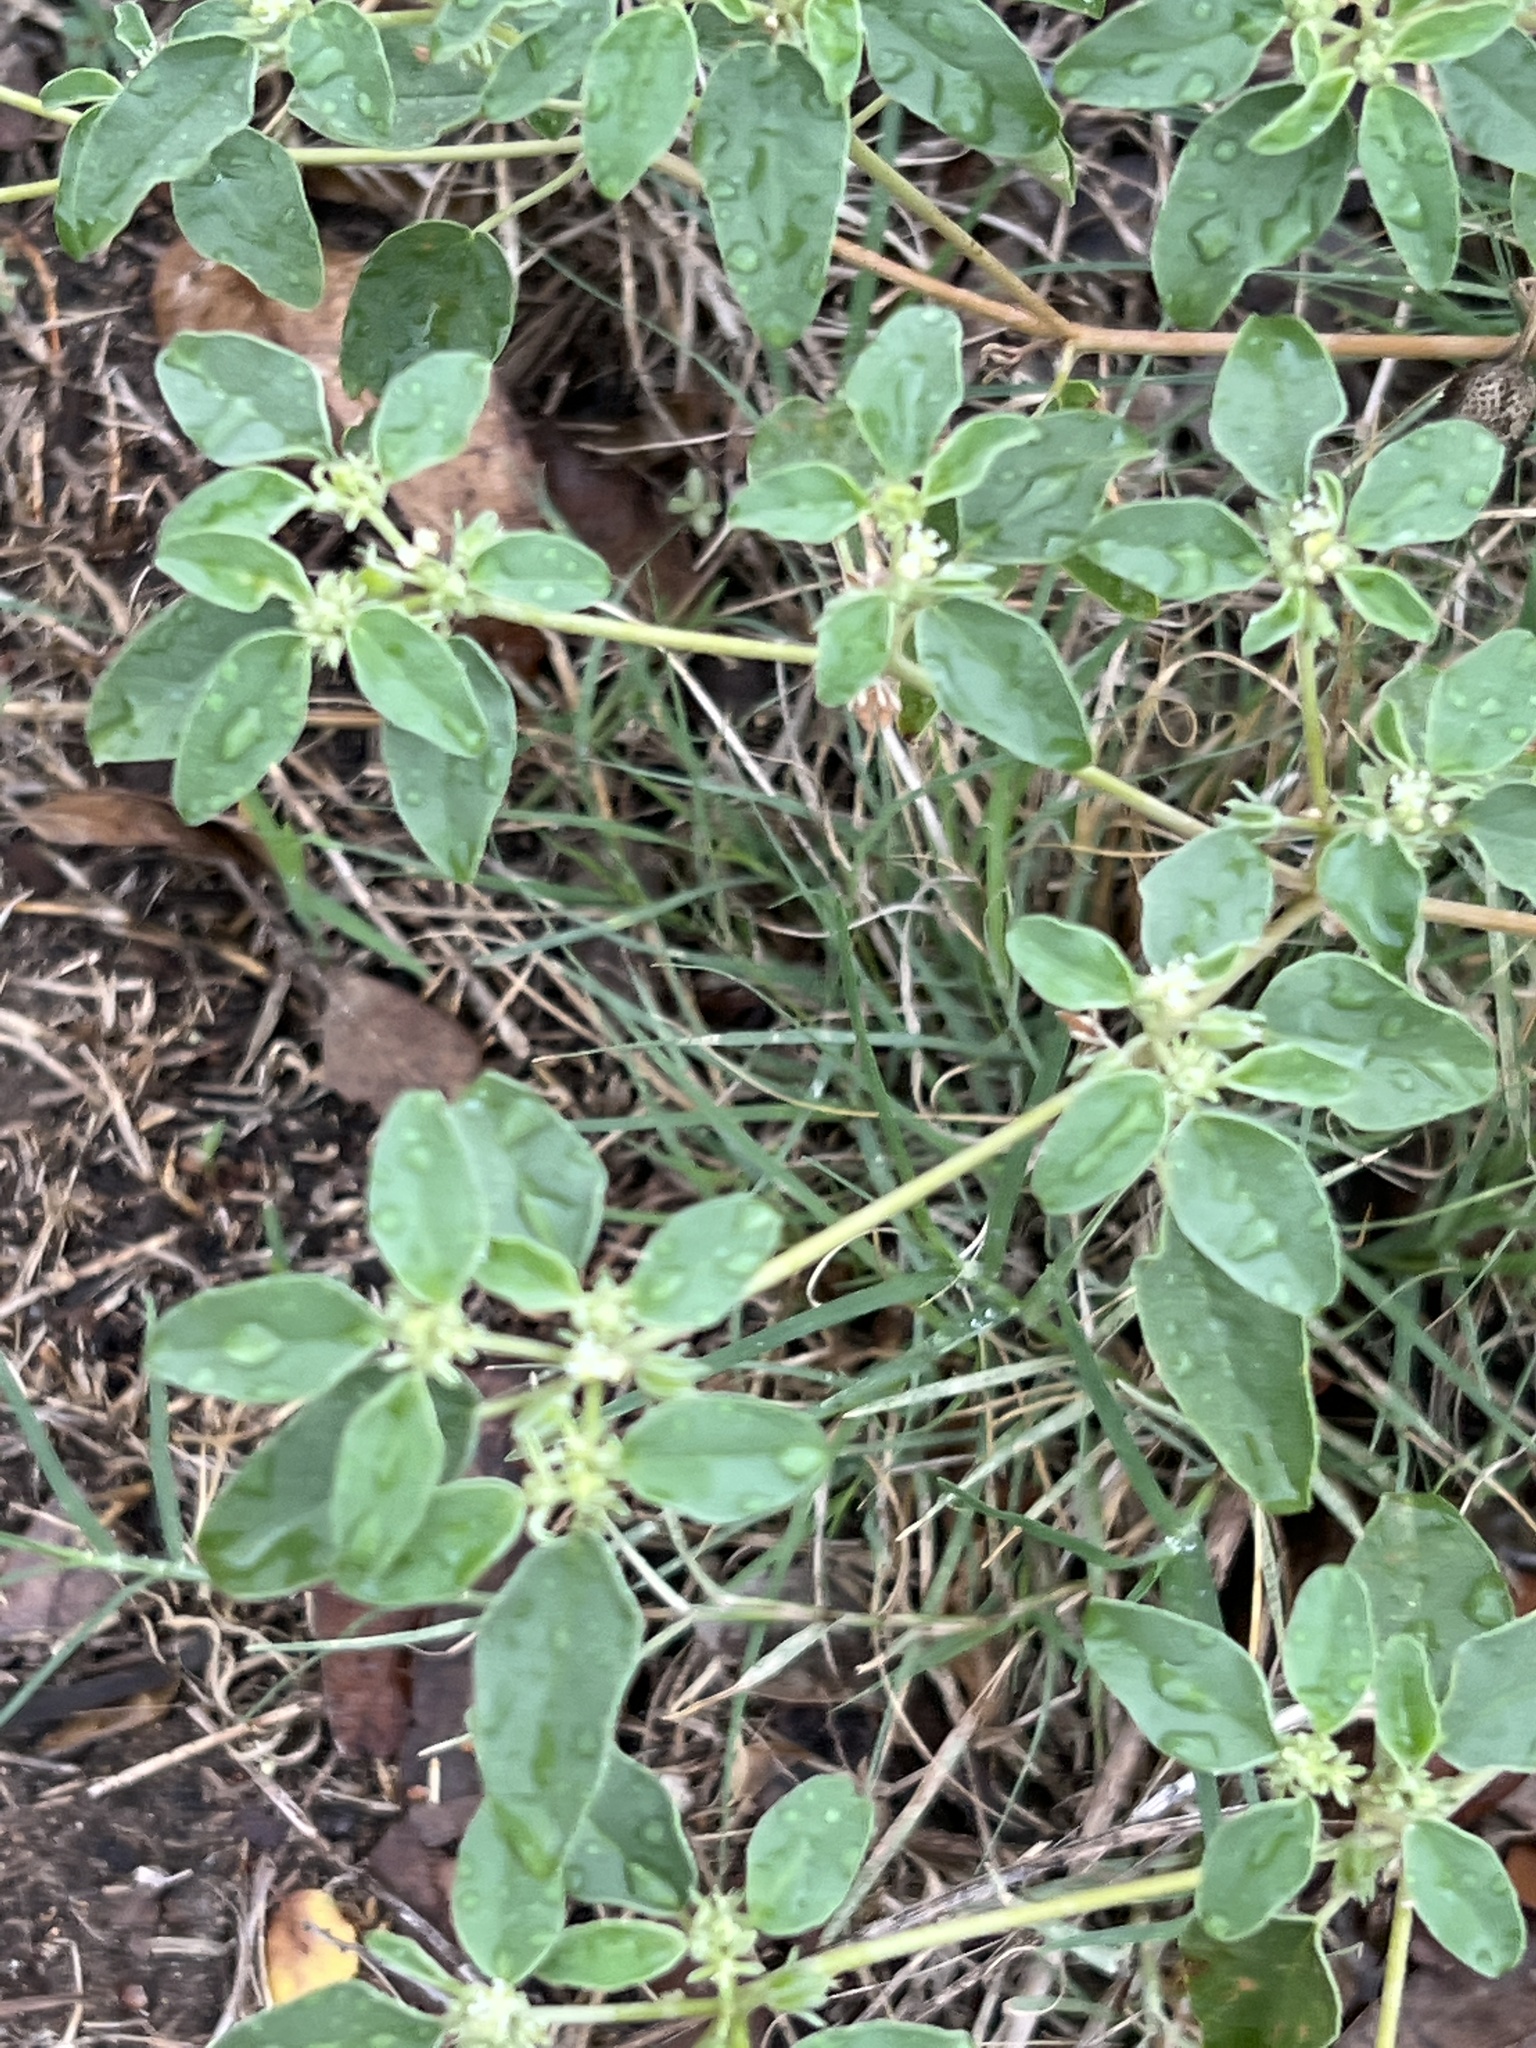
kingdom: Plantae
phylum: Tracheophyta
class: Magnoliopsida
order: Malpighiales
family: Euphorbiaceae
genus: Croton
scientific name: Croton monanthogynus
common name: One-seed croton
